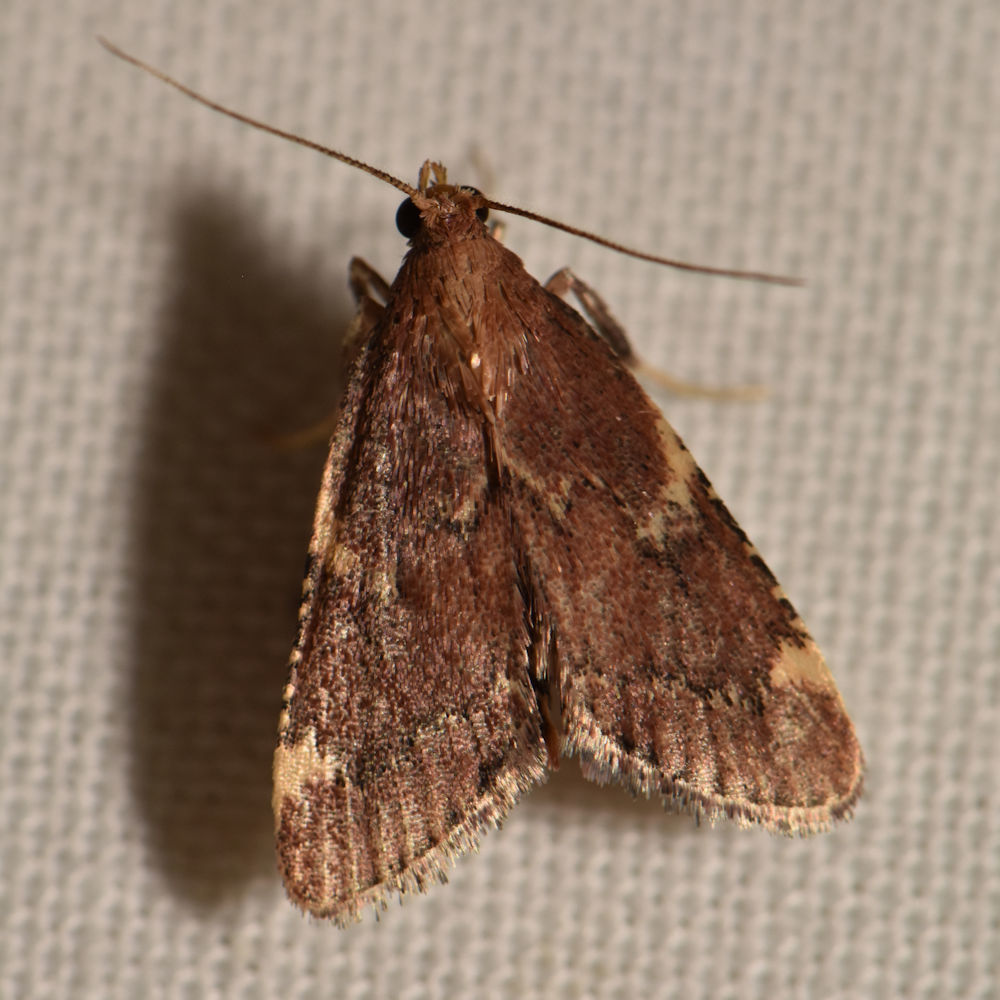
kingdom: Animalia
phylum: Arthropoda
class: Insecta
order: Lepidoptera
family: Pyralidae
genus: Hypsopygia
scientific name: Hypsopygia intermedialis
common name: Red-shawled moth
